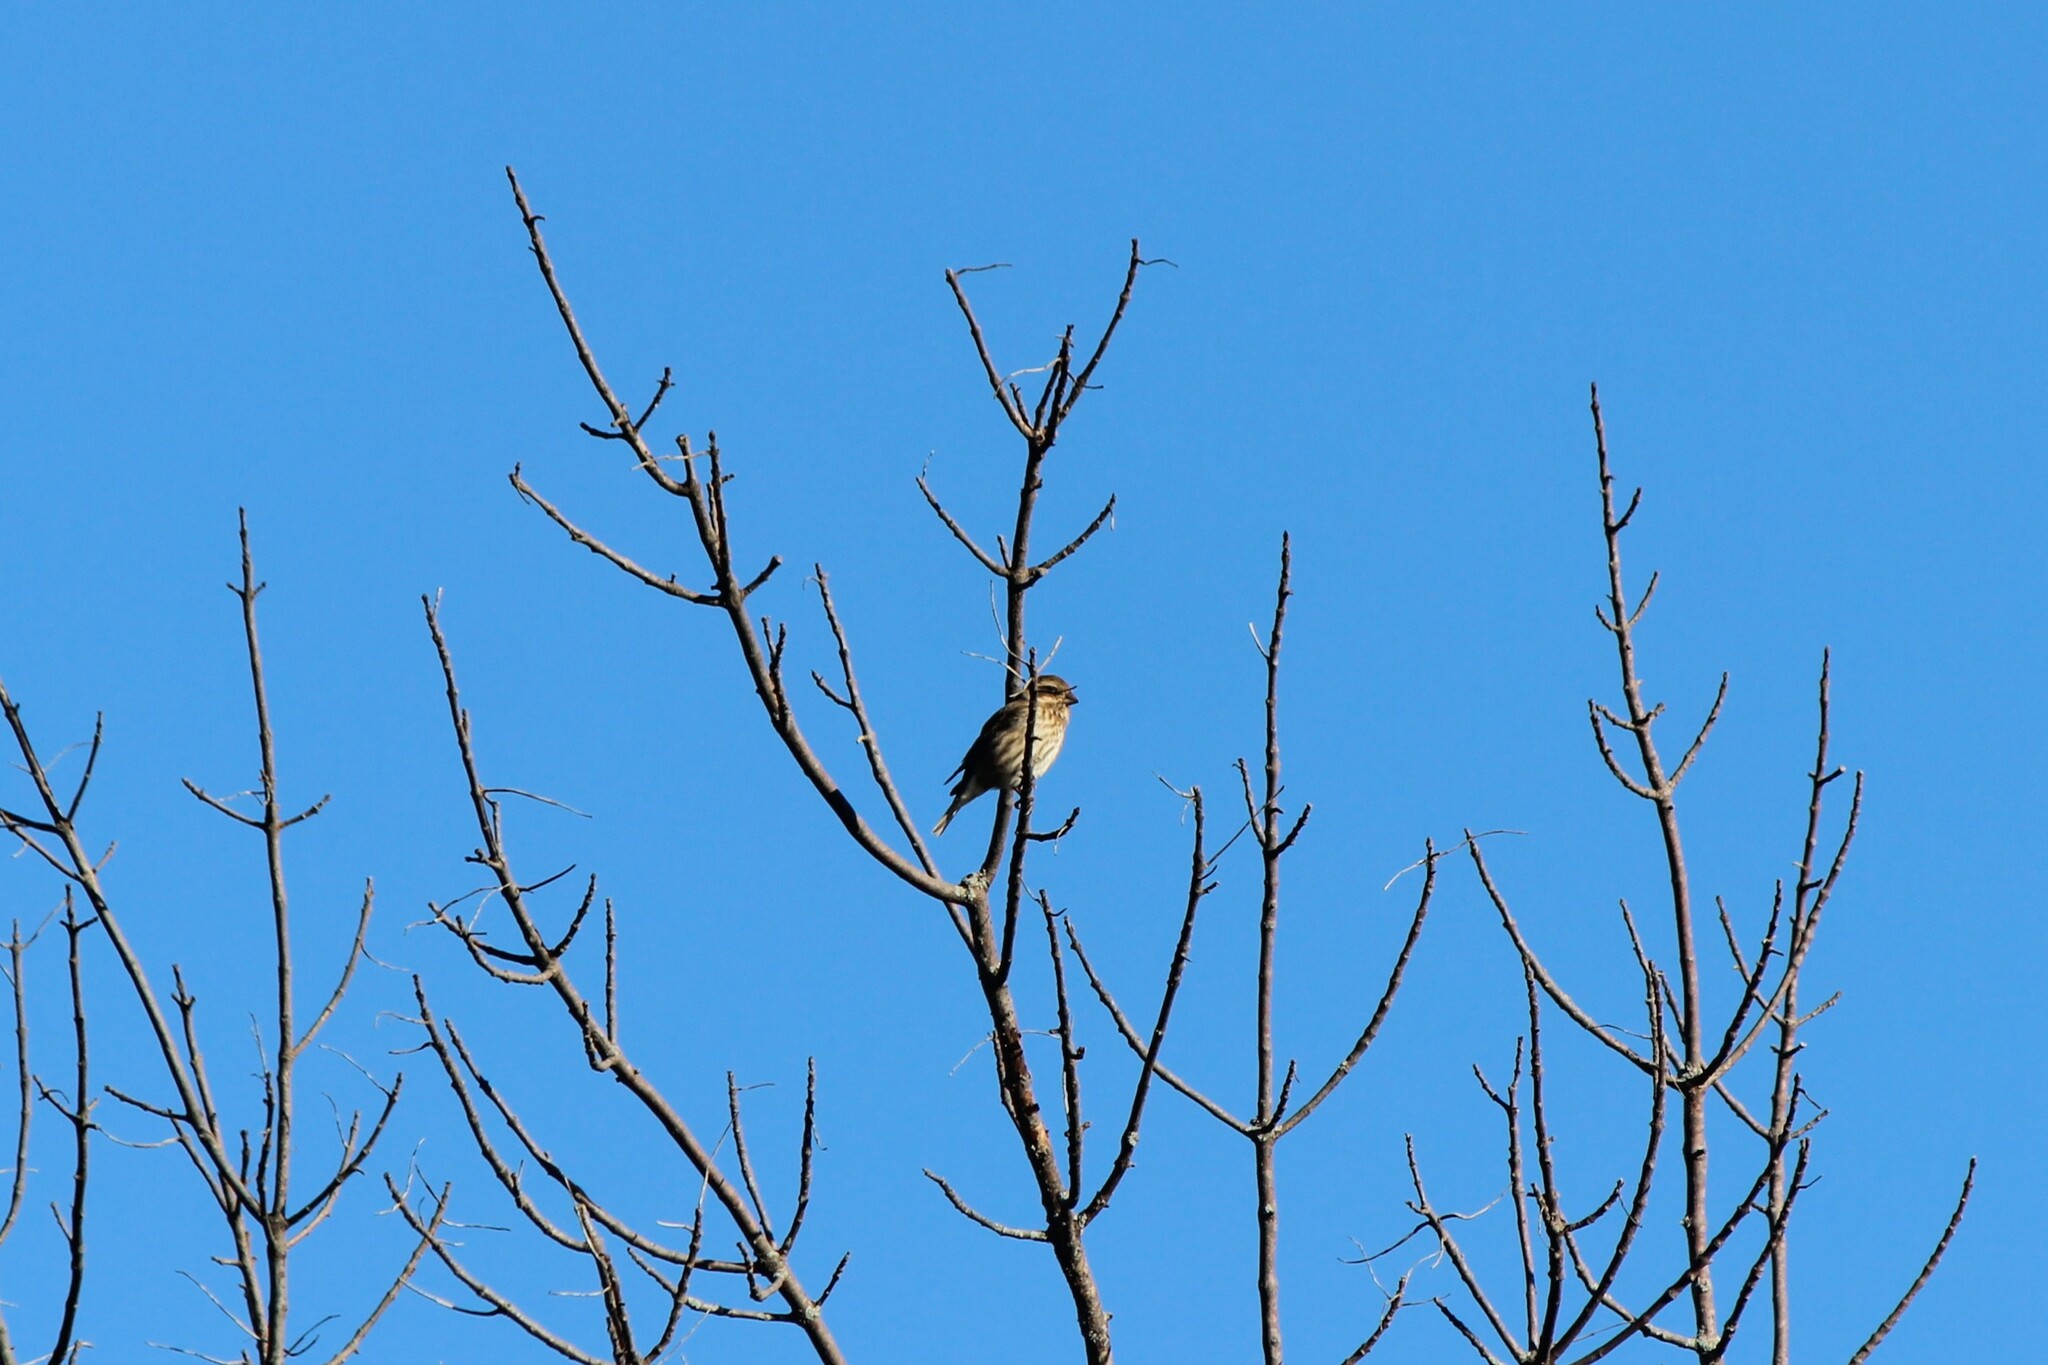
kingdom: Animalia
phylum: Chordata
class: Aves
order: Passeriformes
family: Fringillidae
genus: Haemorhous
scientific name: Haemorhous purpureus
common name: Purple finch
